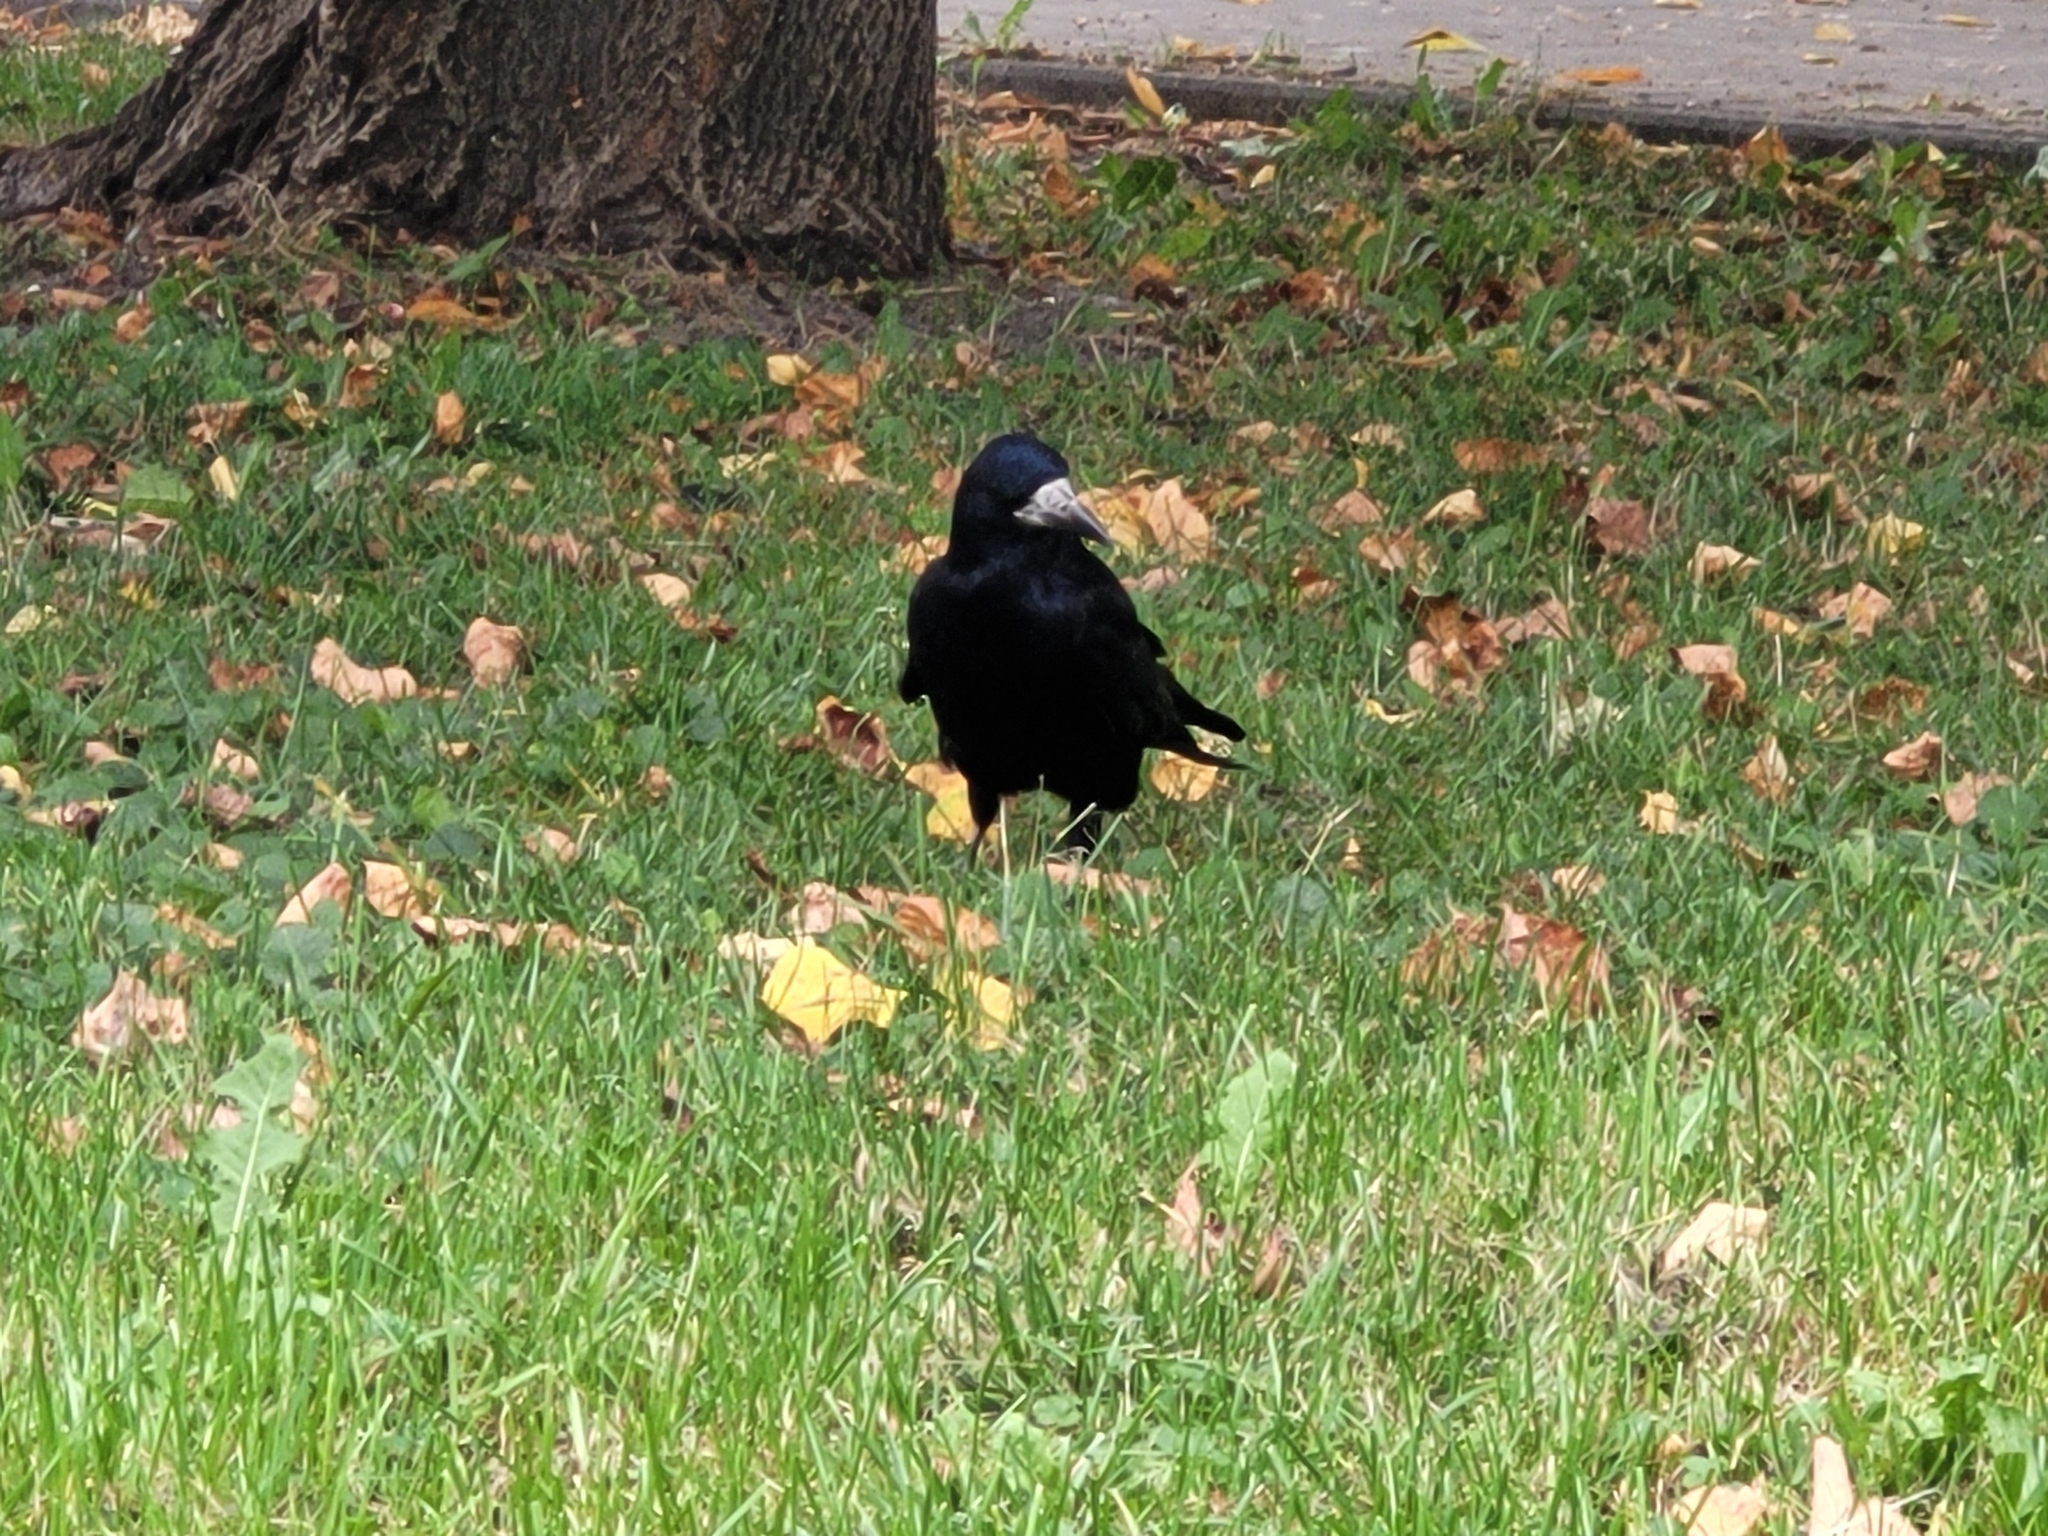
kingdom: Animalia
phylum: Chordata
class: Aves
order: Passeriformes
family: Corvidae
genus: Corvus
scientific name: Corvus frugilegus
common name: Rook
